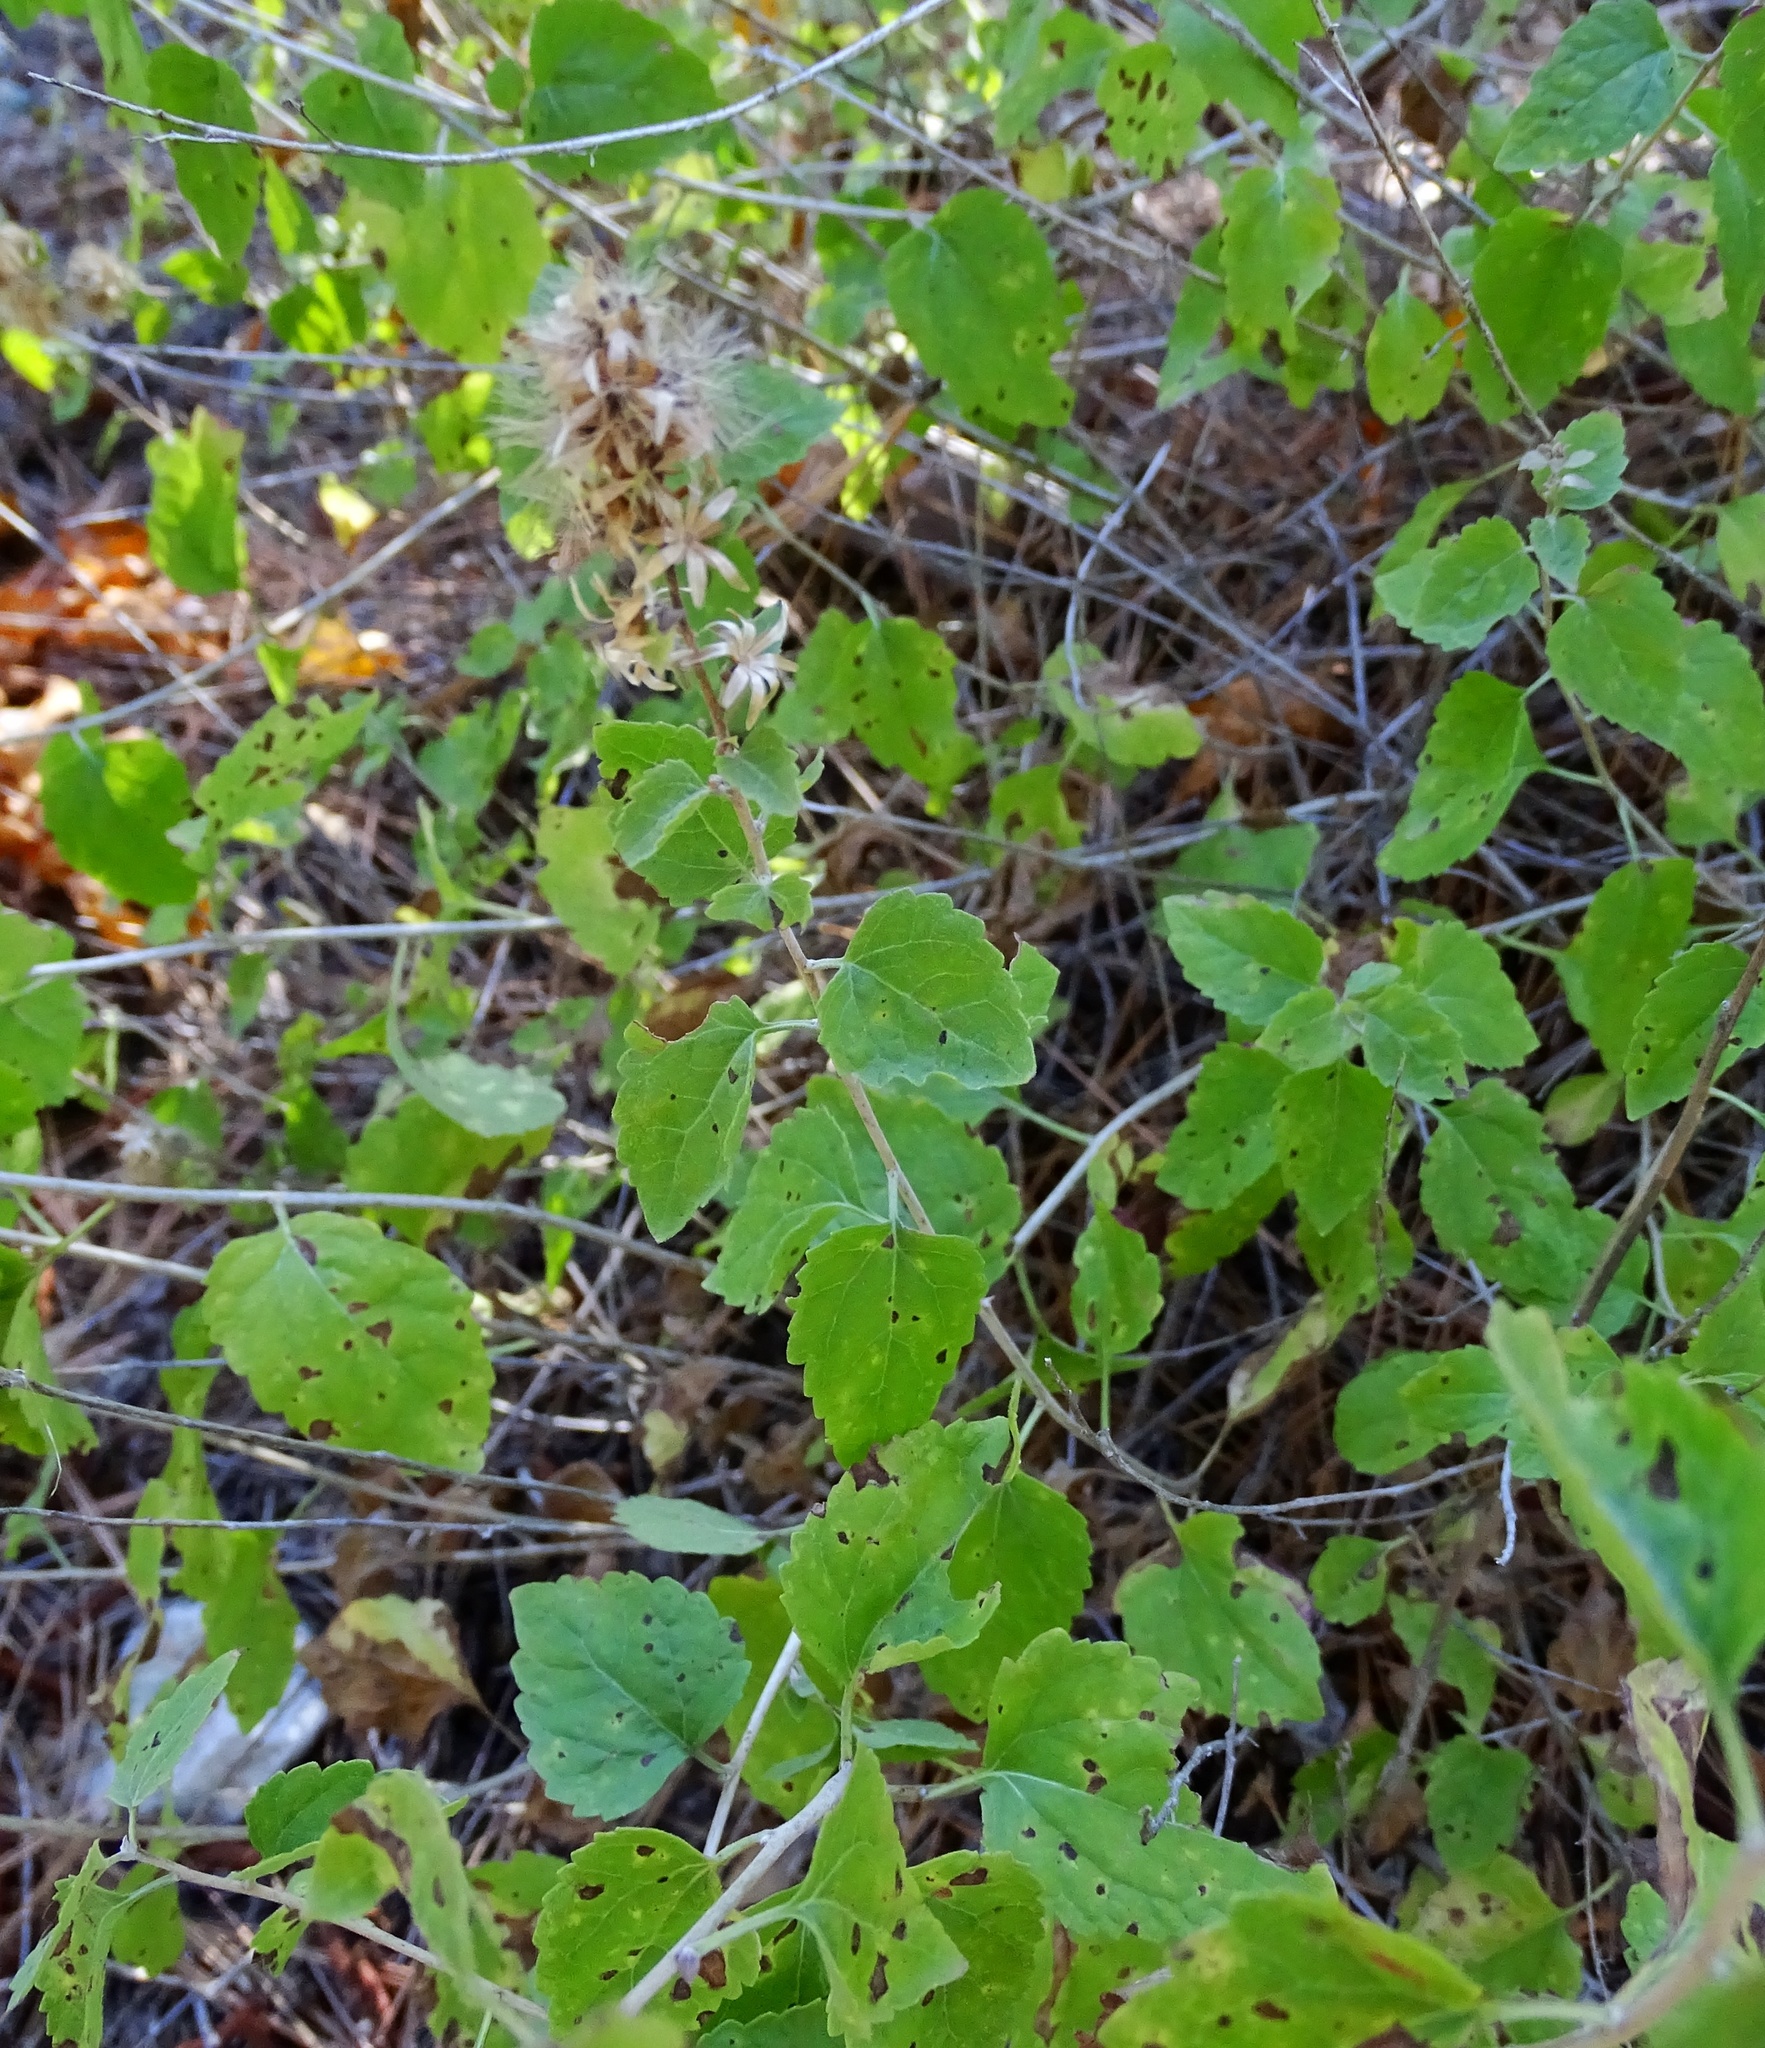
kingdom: Plantae
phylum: Tracheophyta
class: Magnoliopsida
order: Asterales
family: Asteraceae
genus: Brickellia
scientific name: Brickellia californica
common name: California brickellbush
